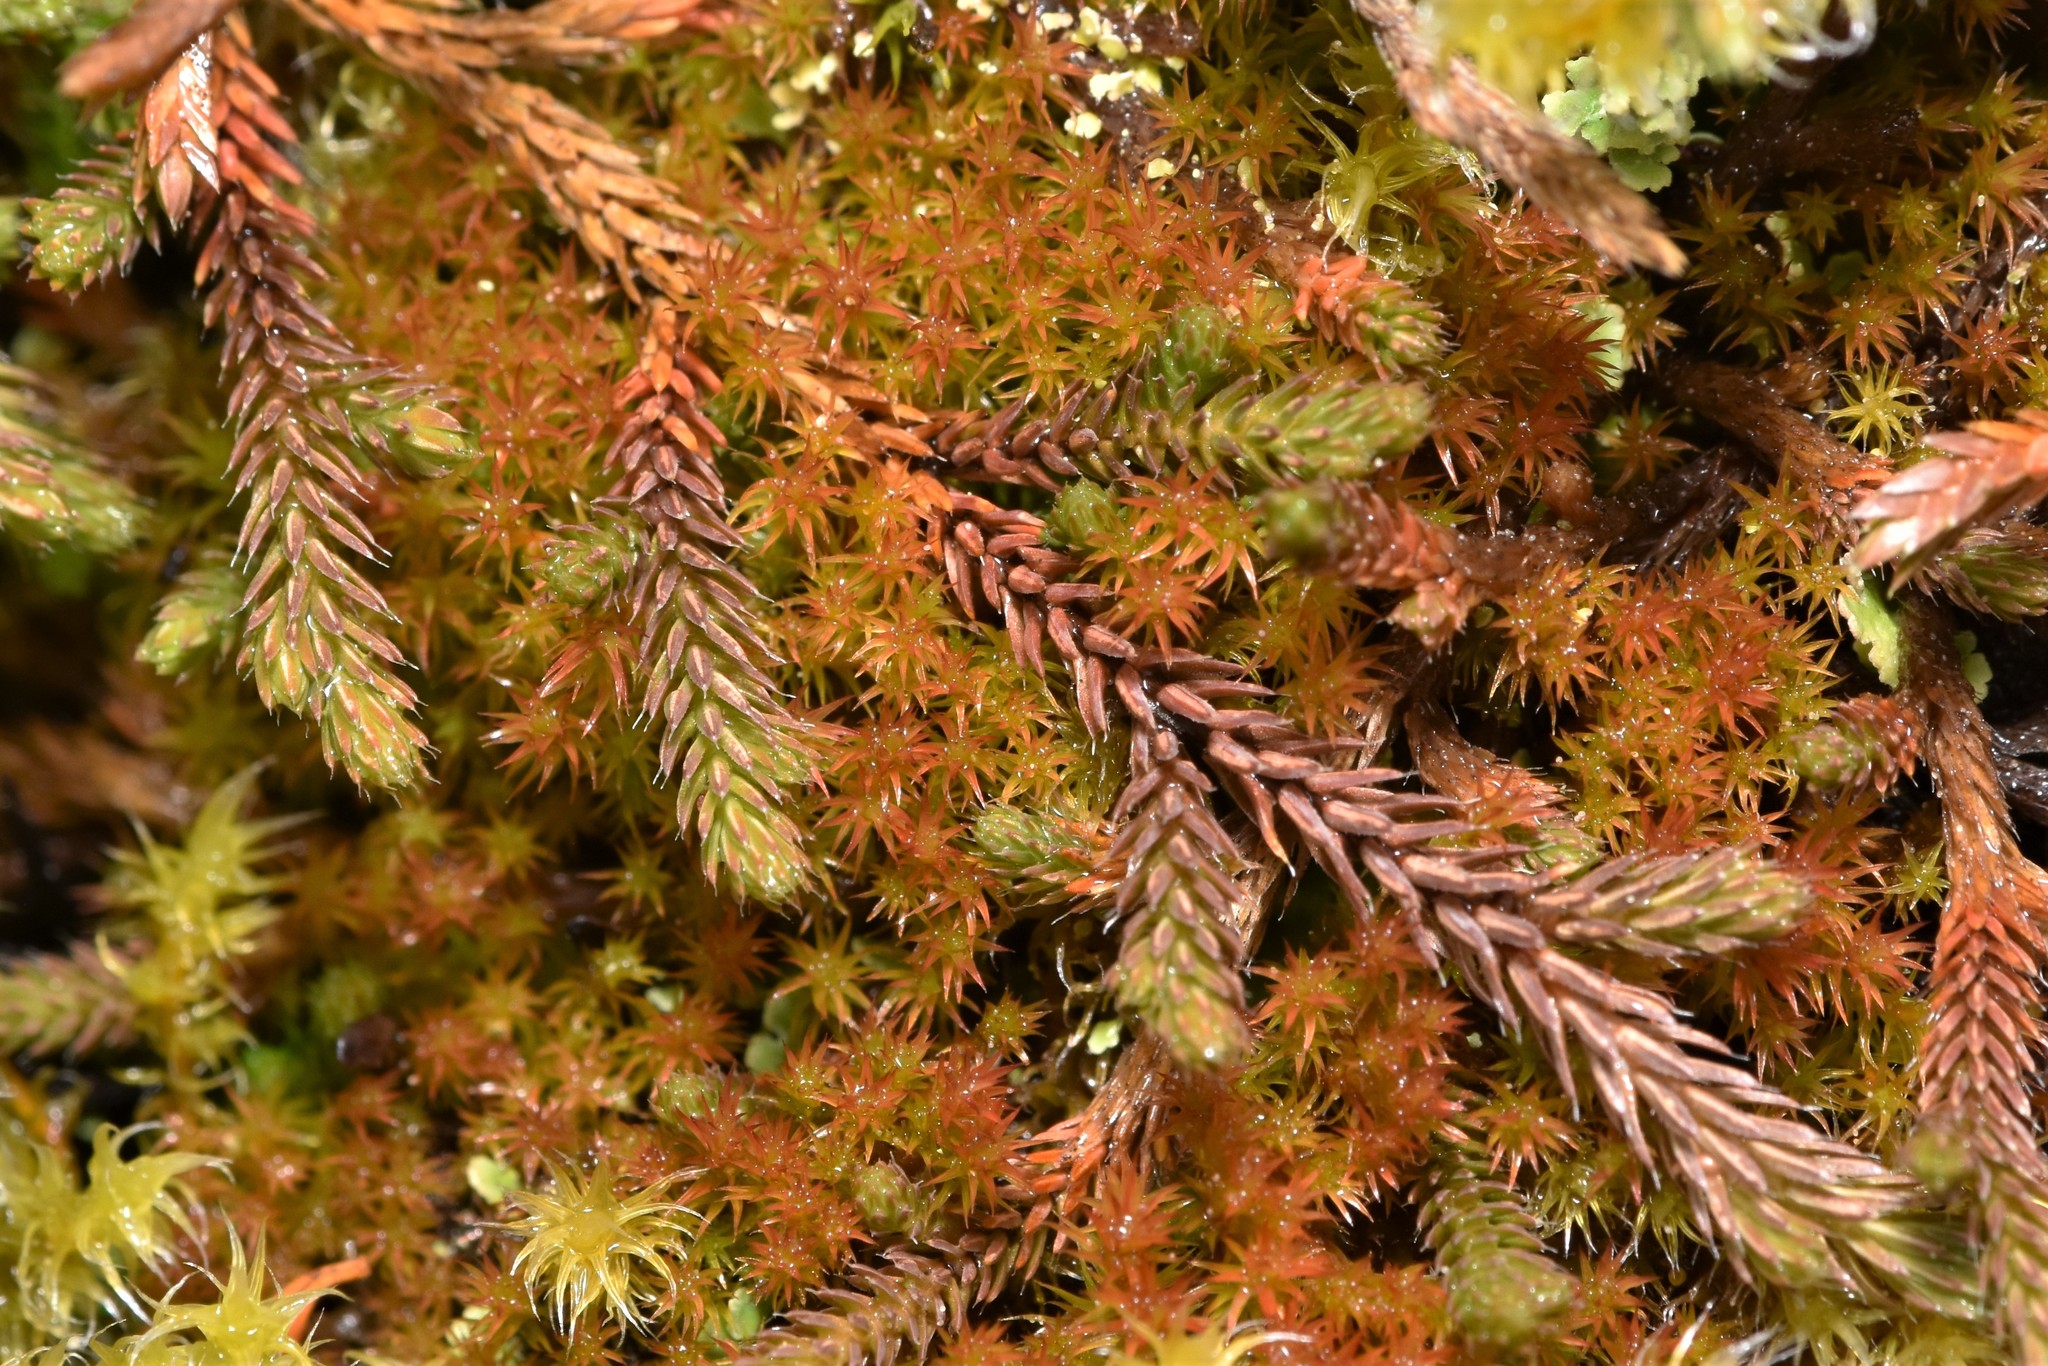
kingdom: Plantae
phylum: Tracheophyta
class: Lycopodiopsida
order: Selaginellales
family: Selaginellaceae
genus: Selaginella
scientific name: Selaginella wallacei
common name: Wallace's selaginella
